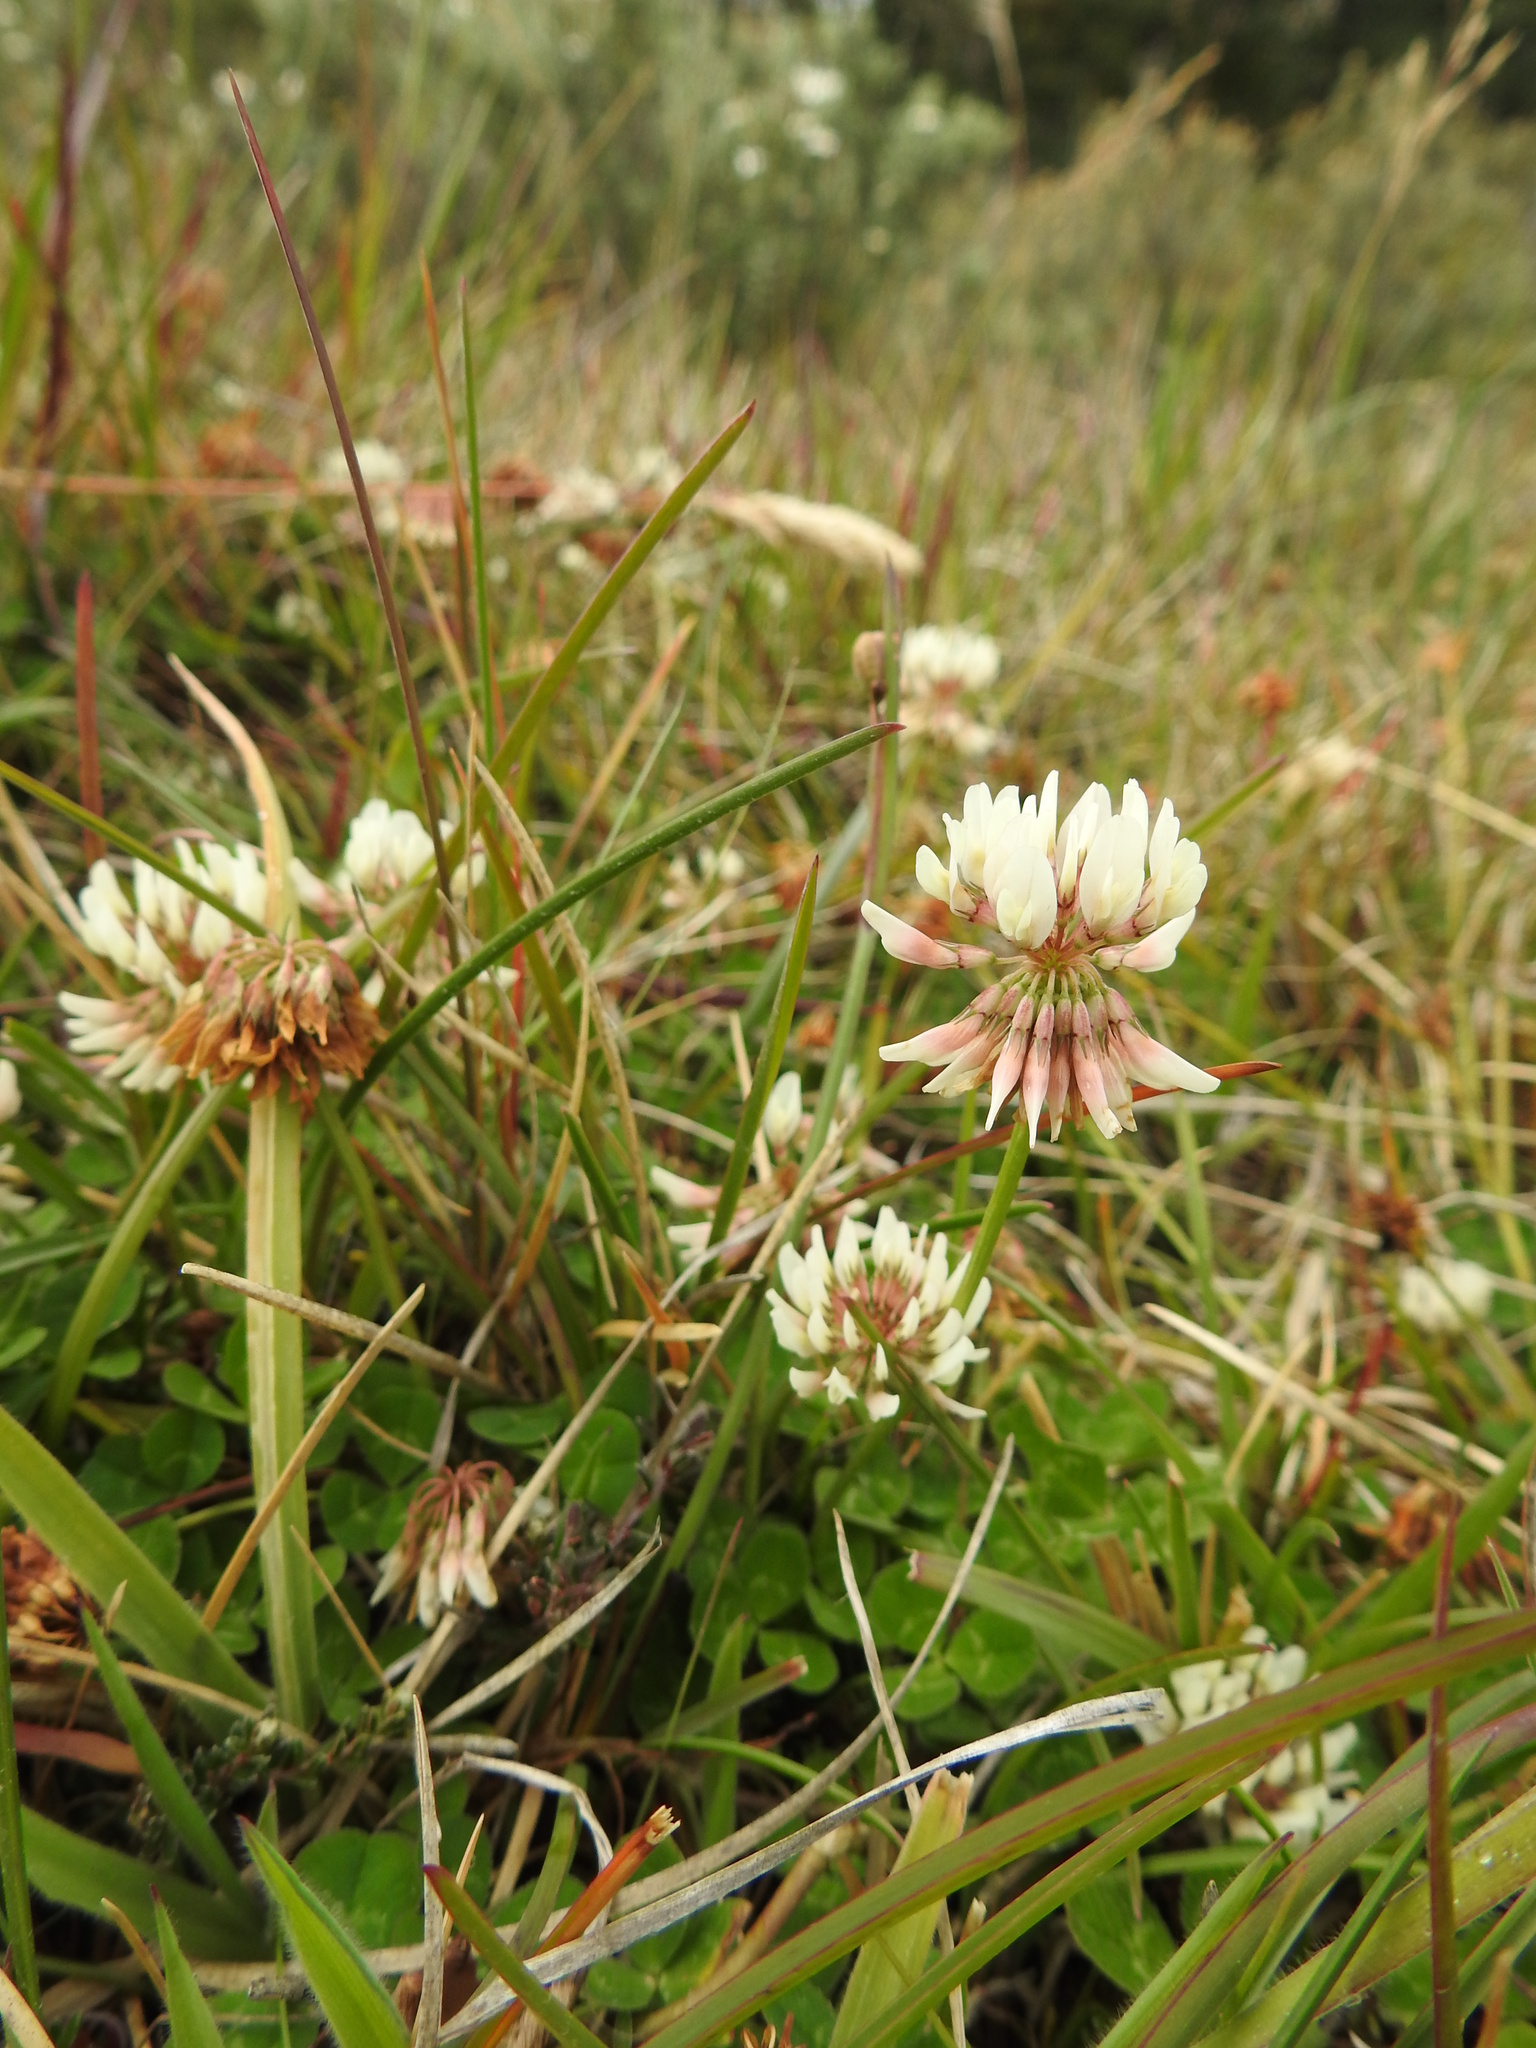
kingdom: Plantae
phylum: Tracheophyta
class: Magnoliopsida
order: Fabales
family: Fabaceae
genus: Trifolium
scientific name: Trifolium repens
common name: White clover
